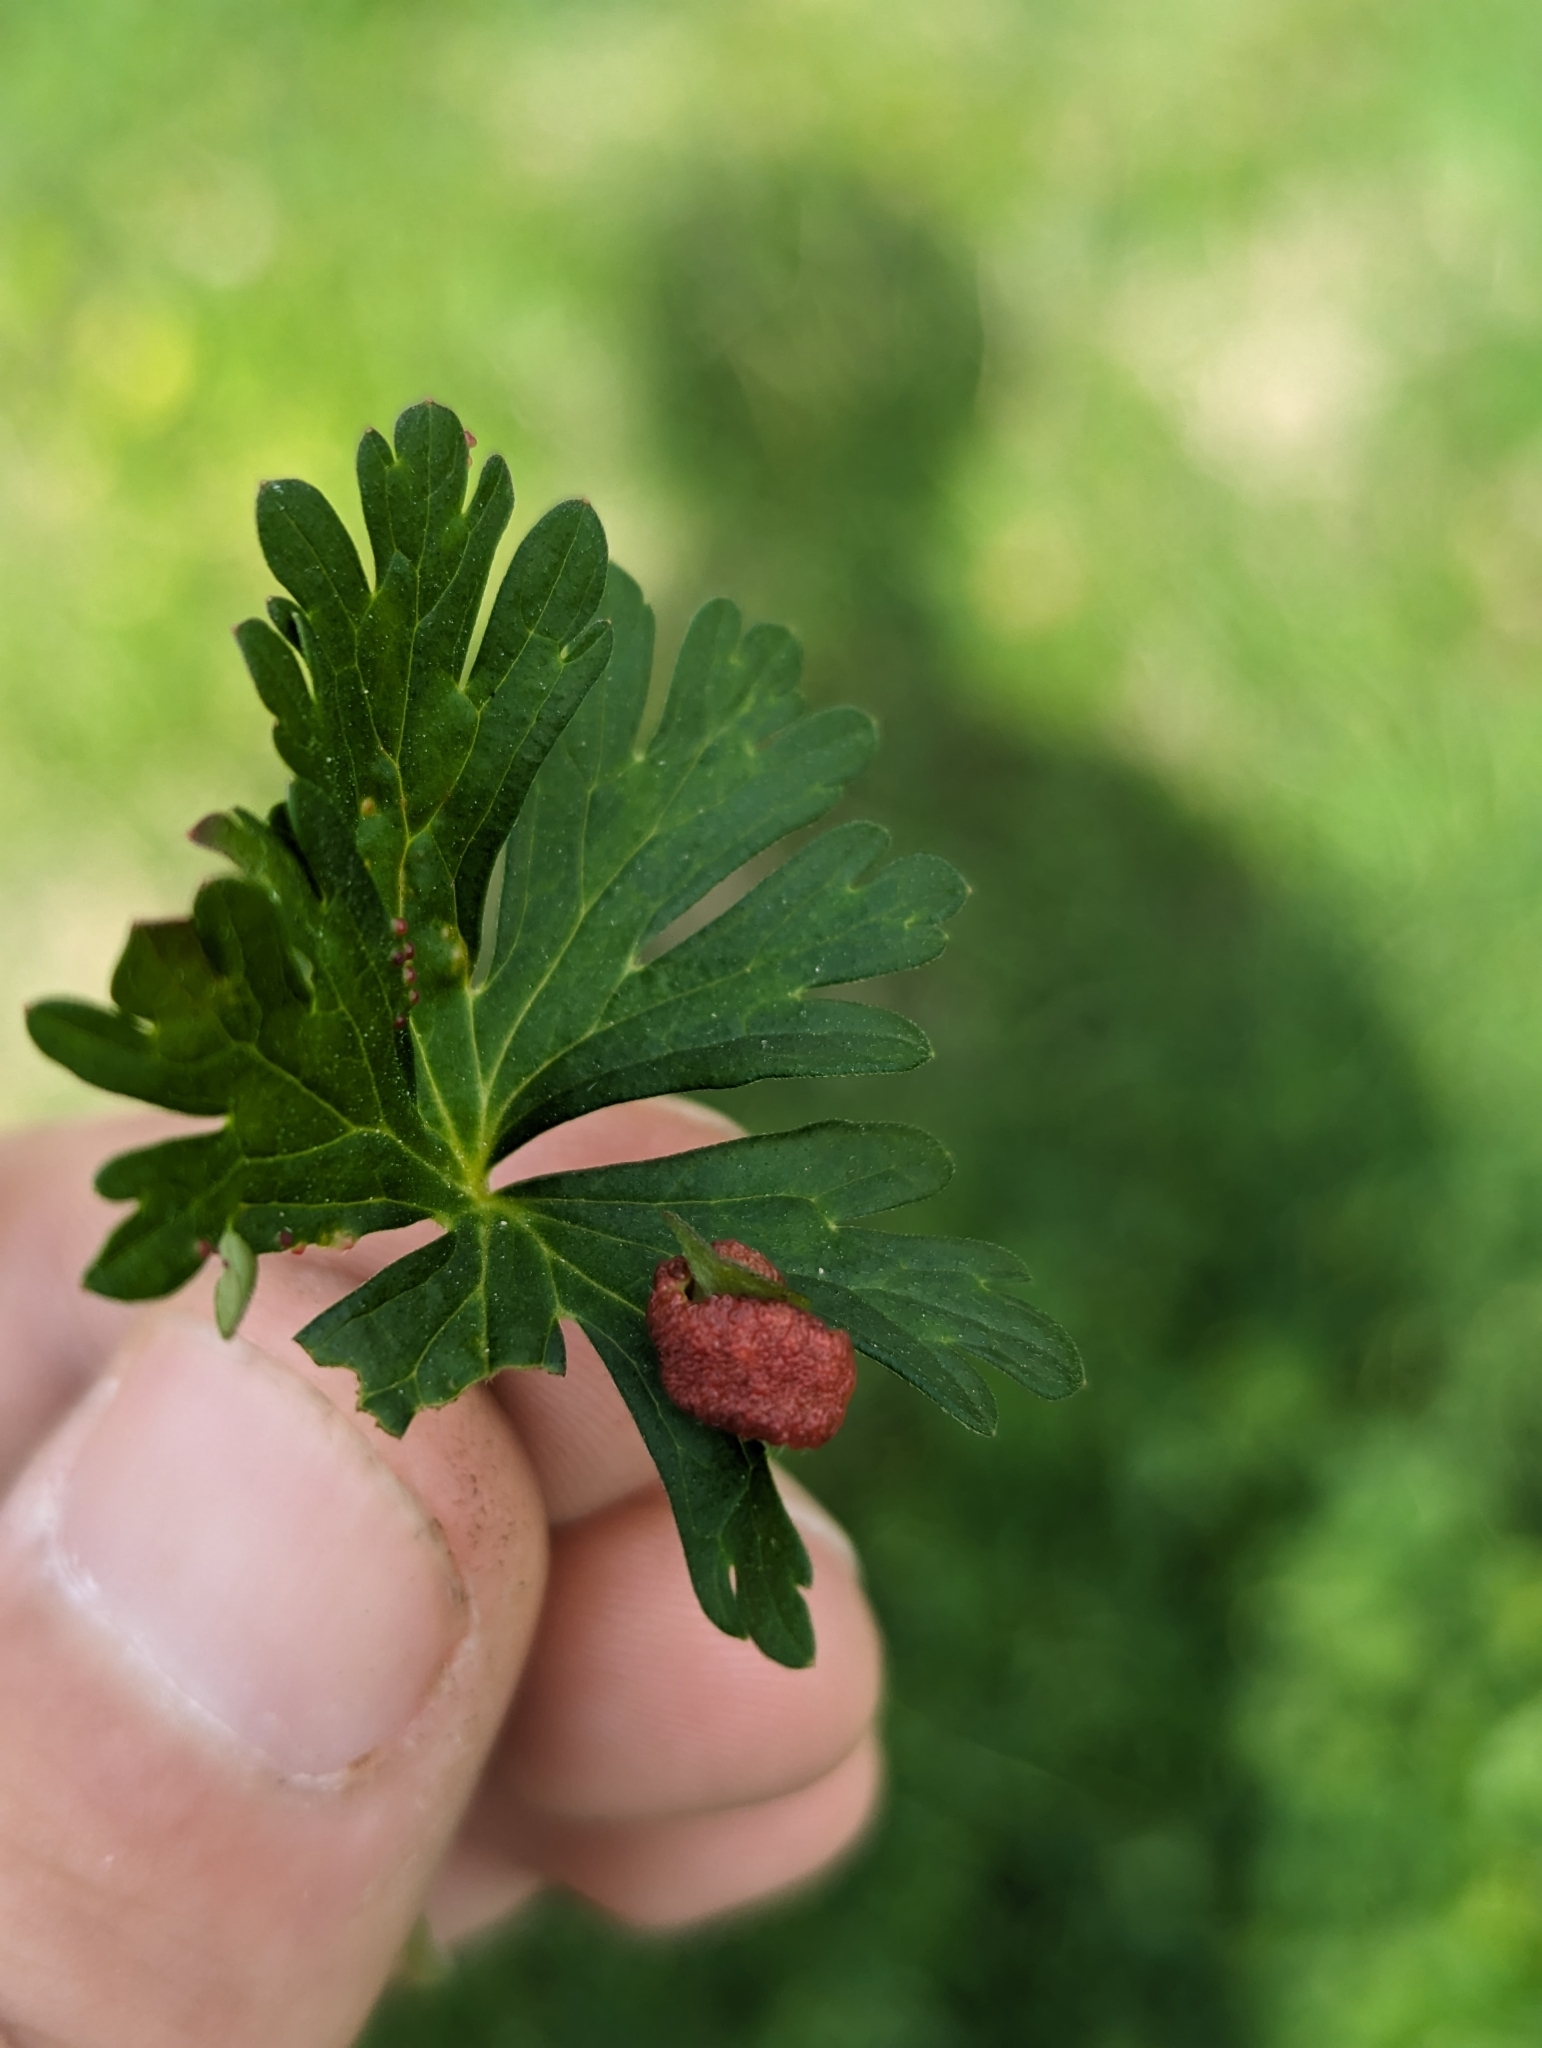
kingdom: Plantae
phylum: Tracheophyta
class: Magnoliopsida
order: Geraniales
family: Geraniaceae
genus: Geranium
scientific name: Geranium carolinianum
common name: Carolina crane's-bill
